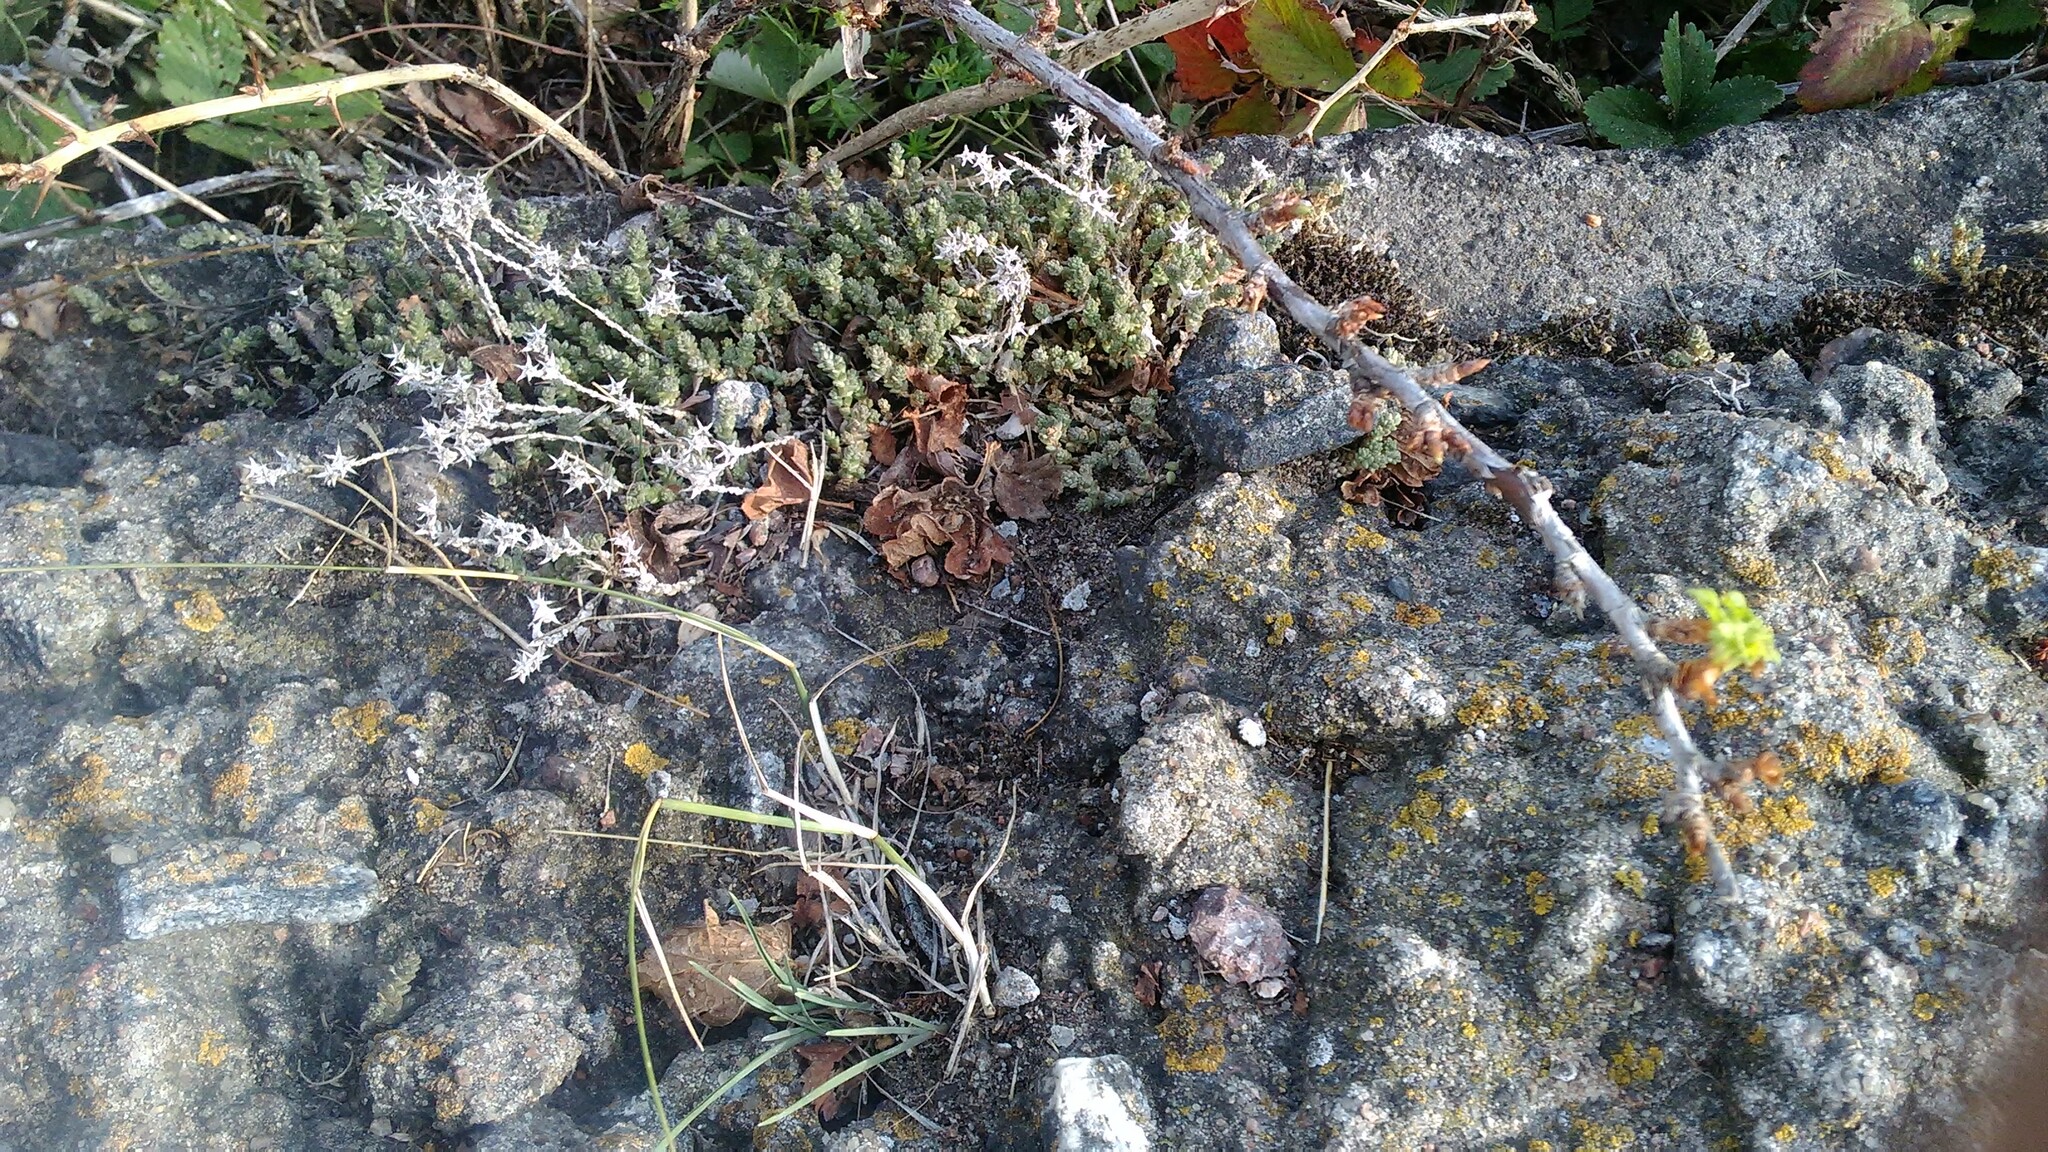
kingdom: Plantae
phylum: Tracheophyta
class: Magnoliopsida
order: Saxifragales
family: Crassulaceae
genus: Sedum
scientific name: Sedum acre
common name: Biting stonecrop
